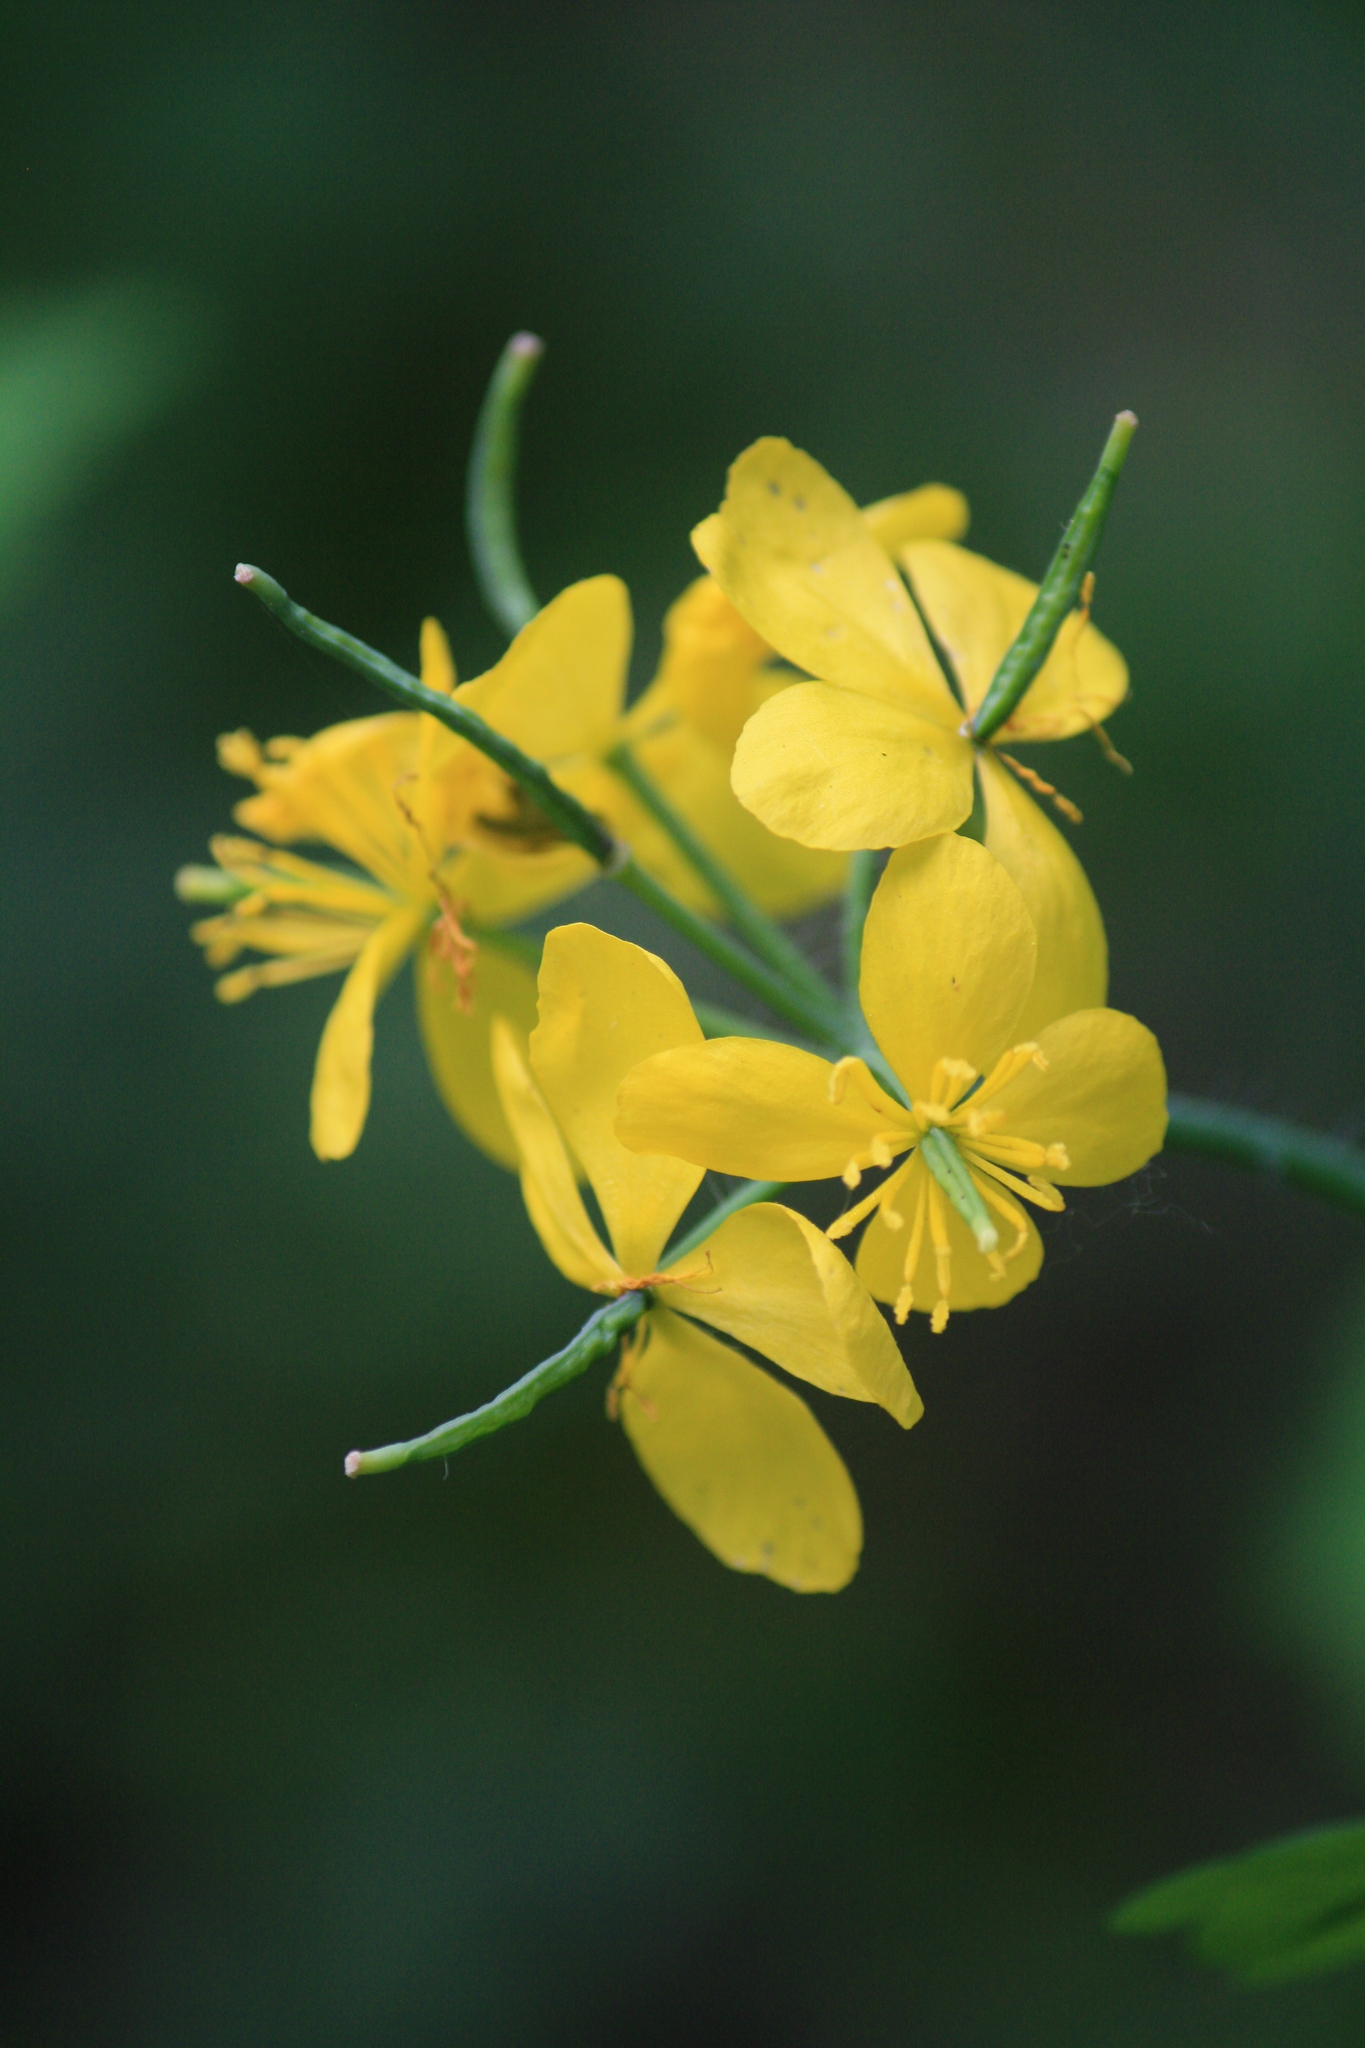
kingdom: Plantae
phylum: Tracheophyta
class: Magnoliopsida
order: Ranunculales
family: Papaveraceae
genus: Chelidonium
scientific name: Chelidonium majus
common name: Greater celandine
